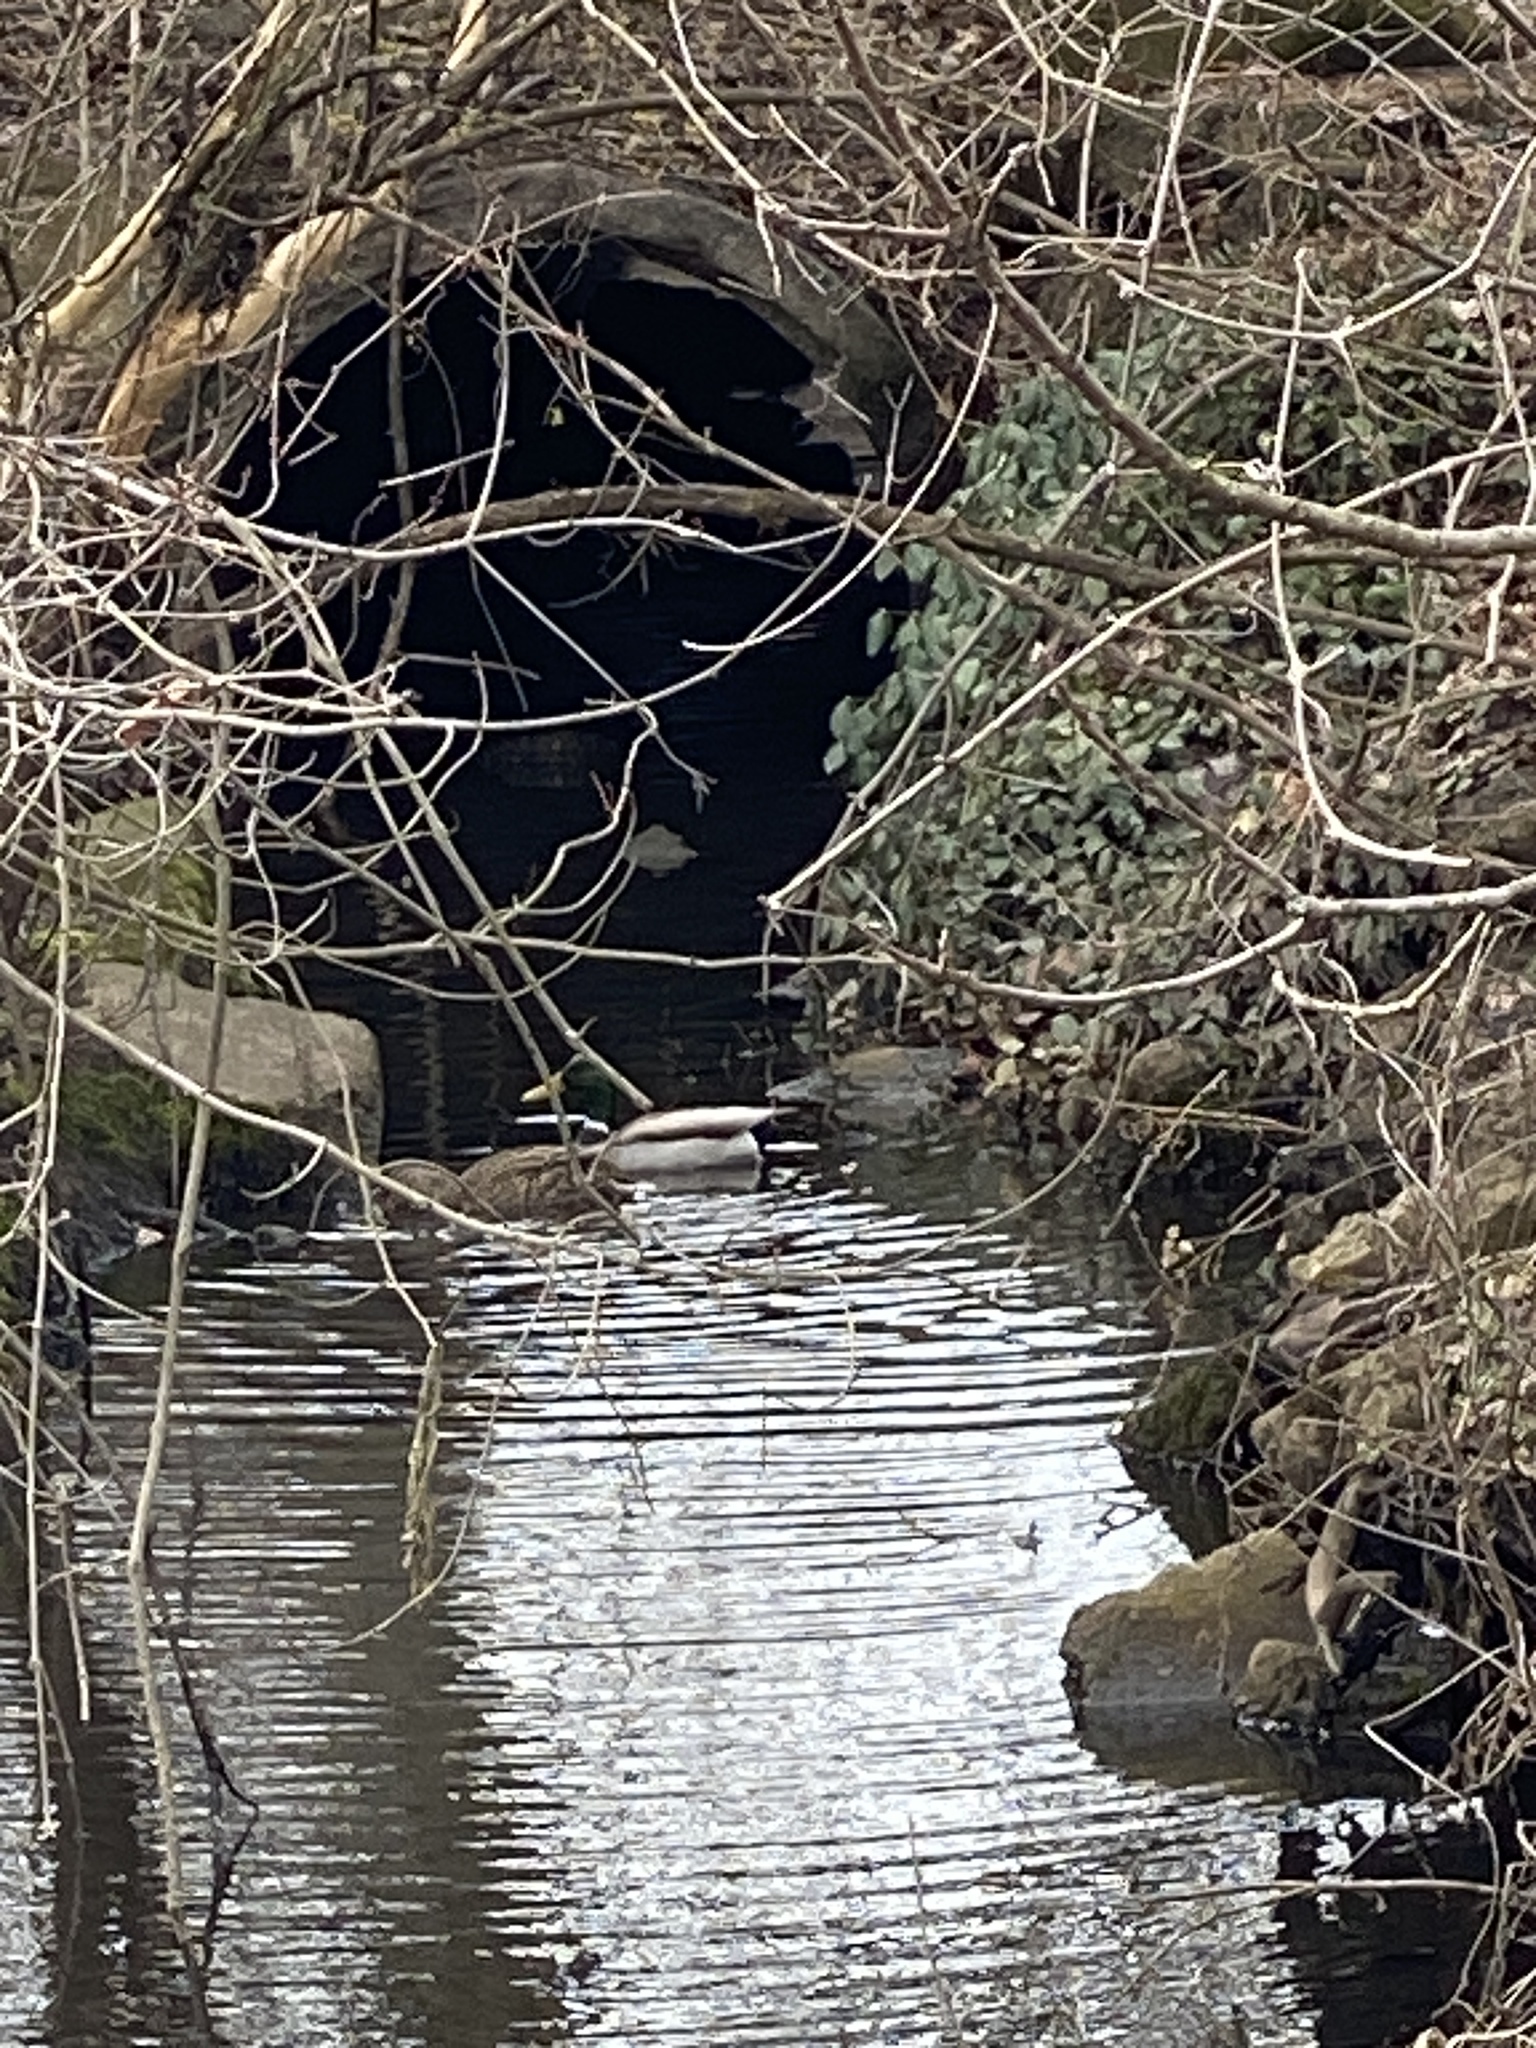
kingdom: Animalia
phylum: Chordata
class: Aves
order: Anseriformes
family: Anatidae
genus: Anas
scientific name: Anas platyrhynchos
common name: Mallard
